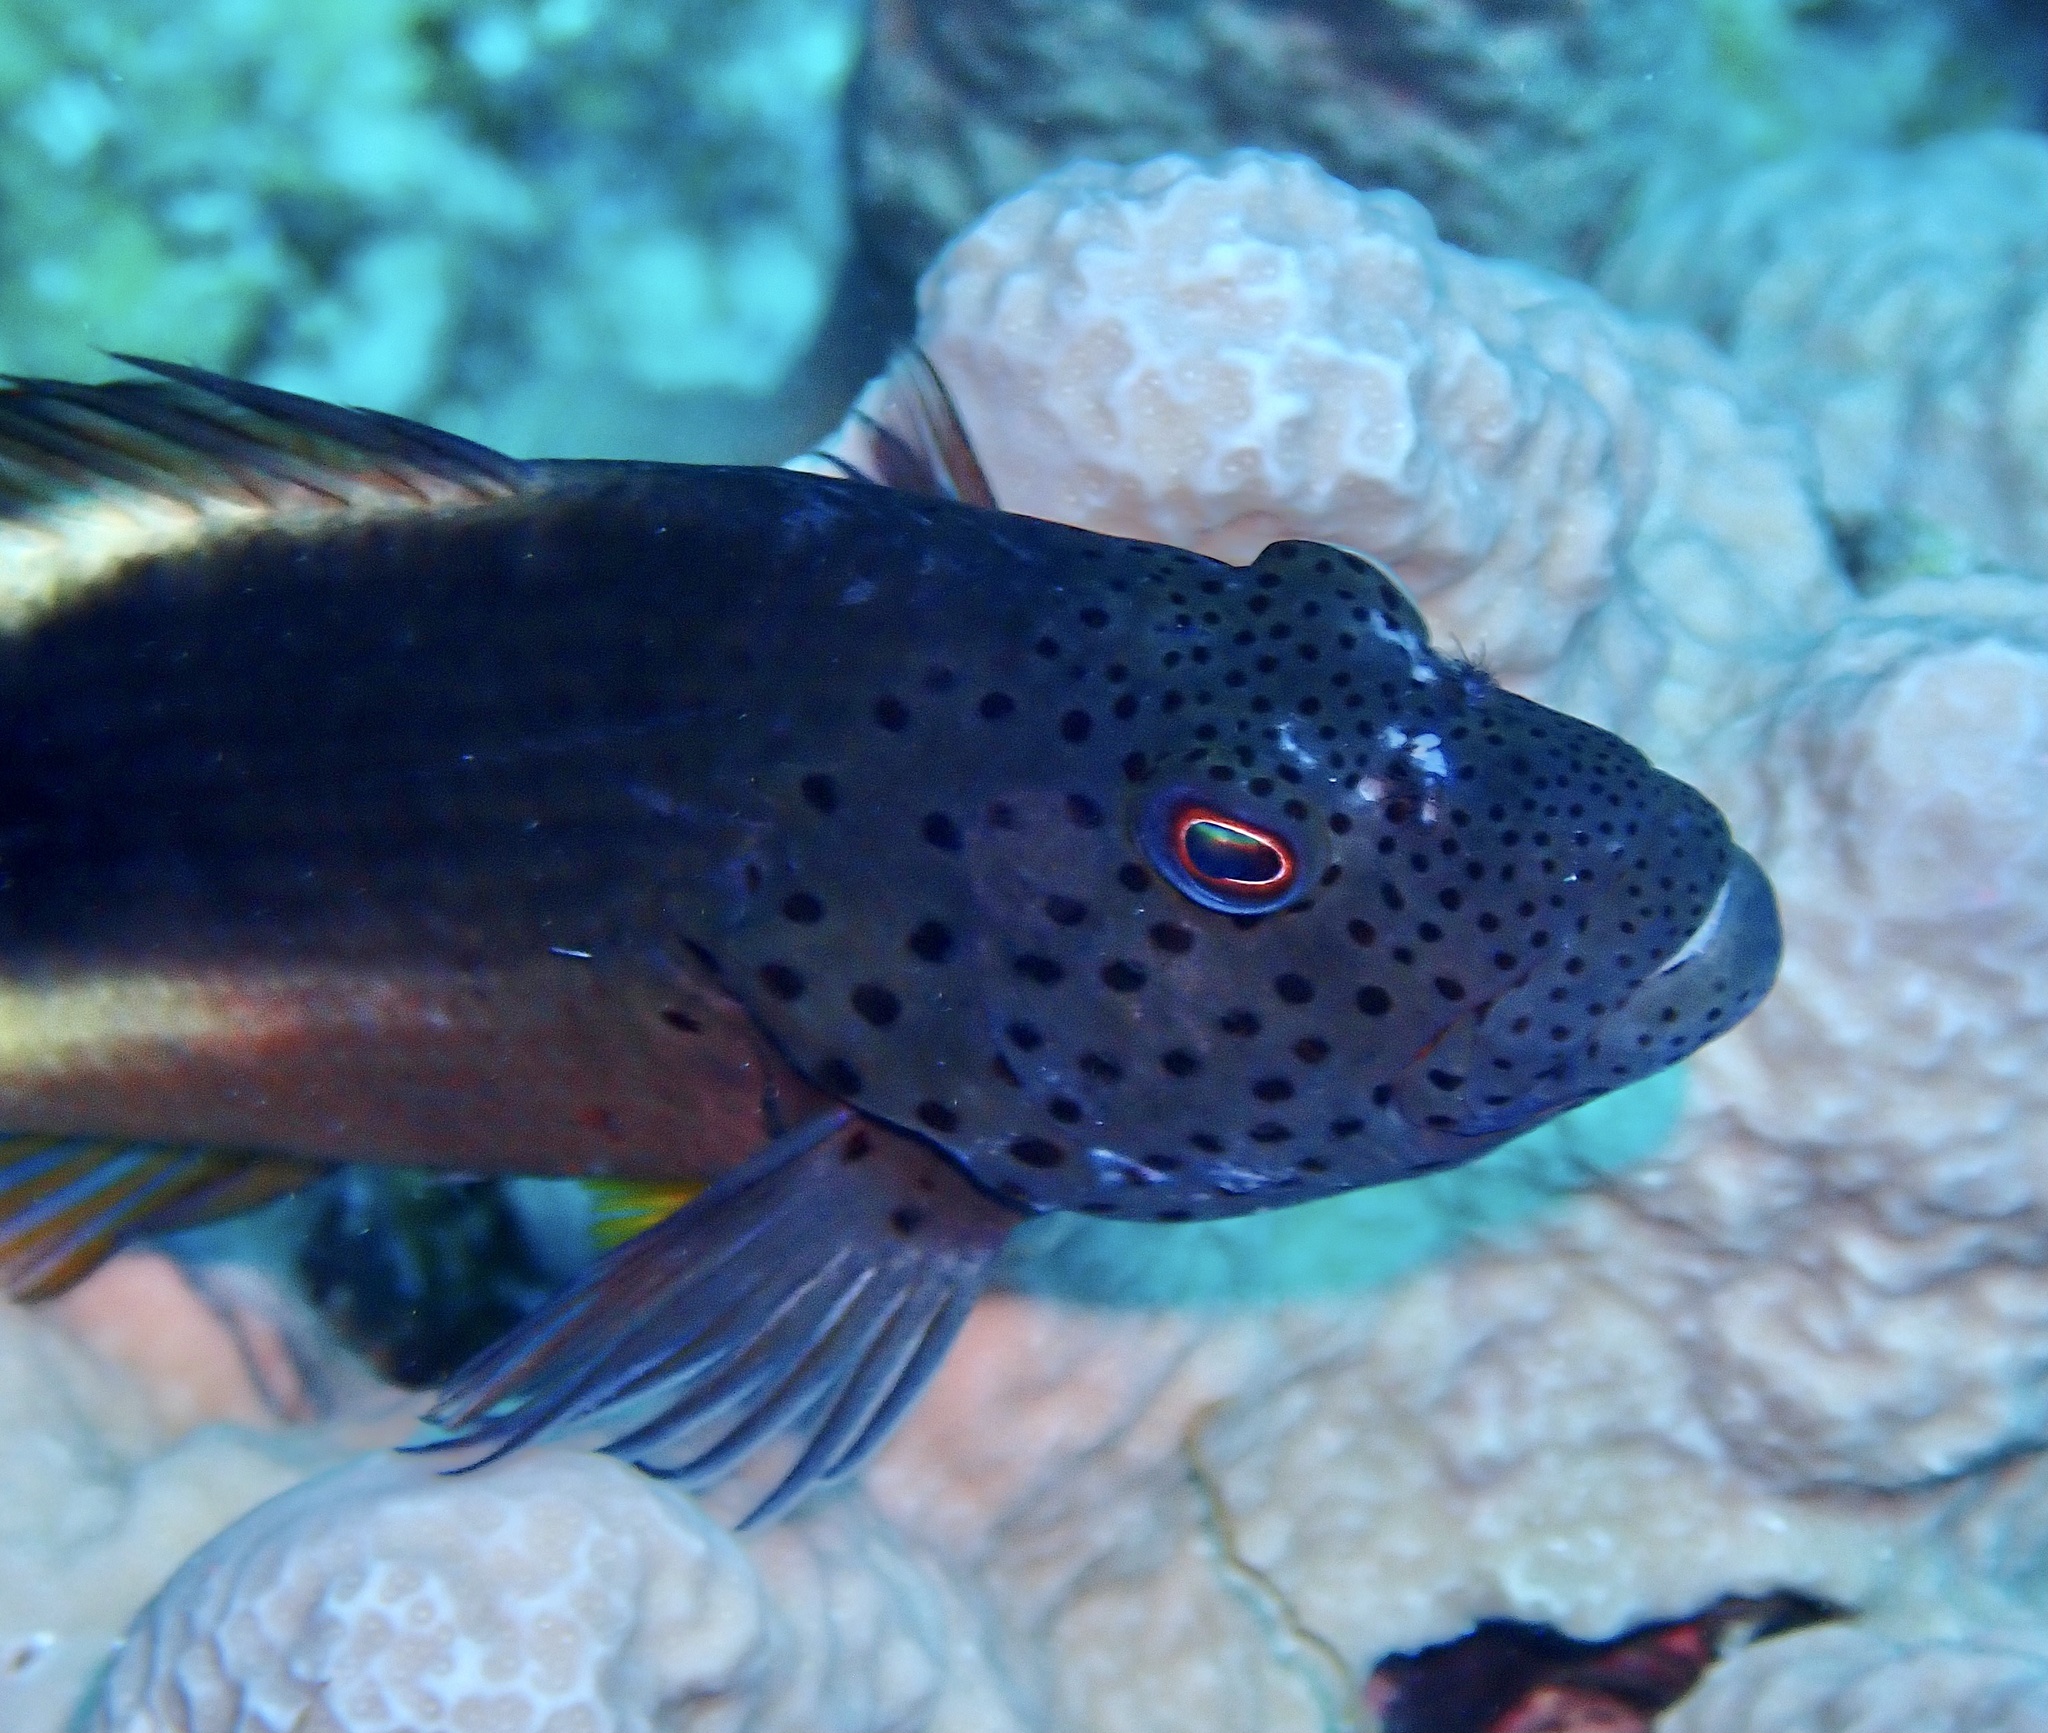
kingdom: Animalia
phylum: Chordata
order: Perciformes
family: Cirrhitidae
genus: Paracirrhites
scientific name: Paracirrhites forsteri
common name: Freckled hawkfish
